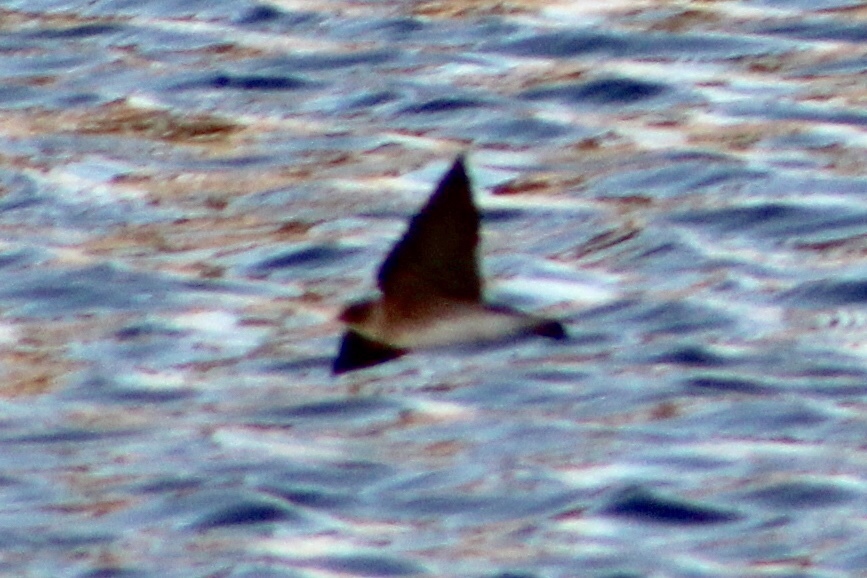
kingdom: Animalia
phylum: Chordata
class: Aves
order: Passeriformes
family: Hirundinidae
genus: Stelgidopteryx
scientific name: Stelgidopteryx serripennis
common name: Northern rough-winged swallow
